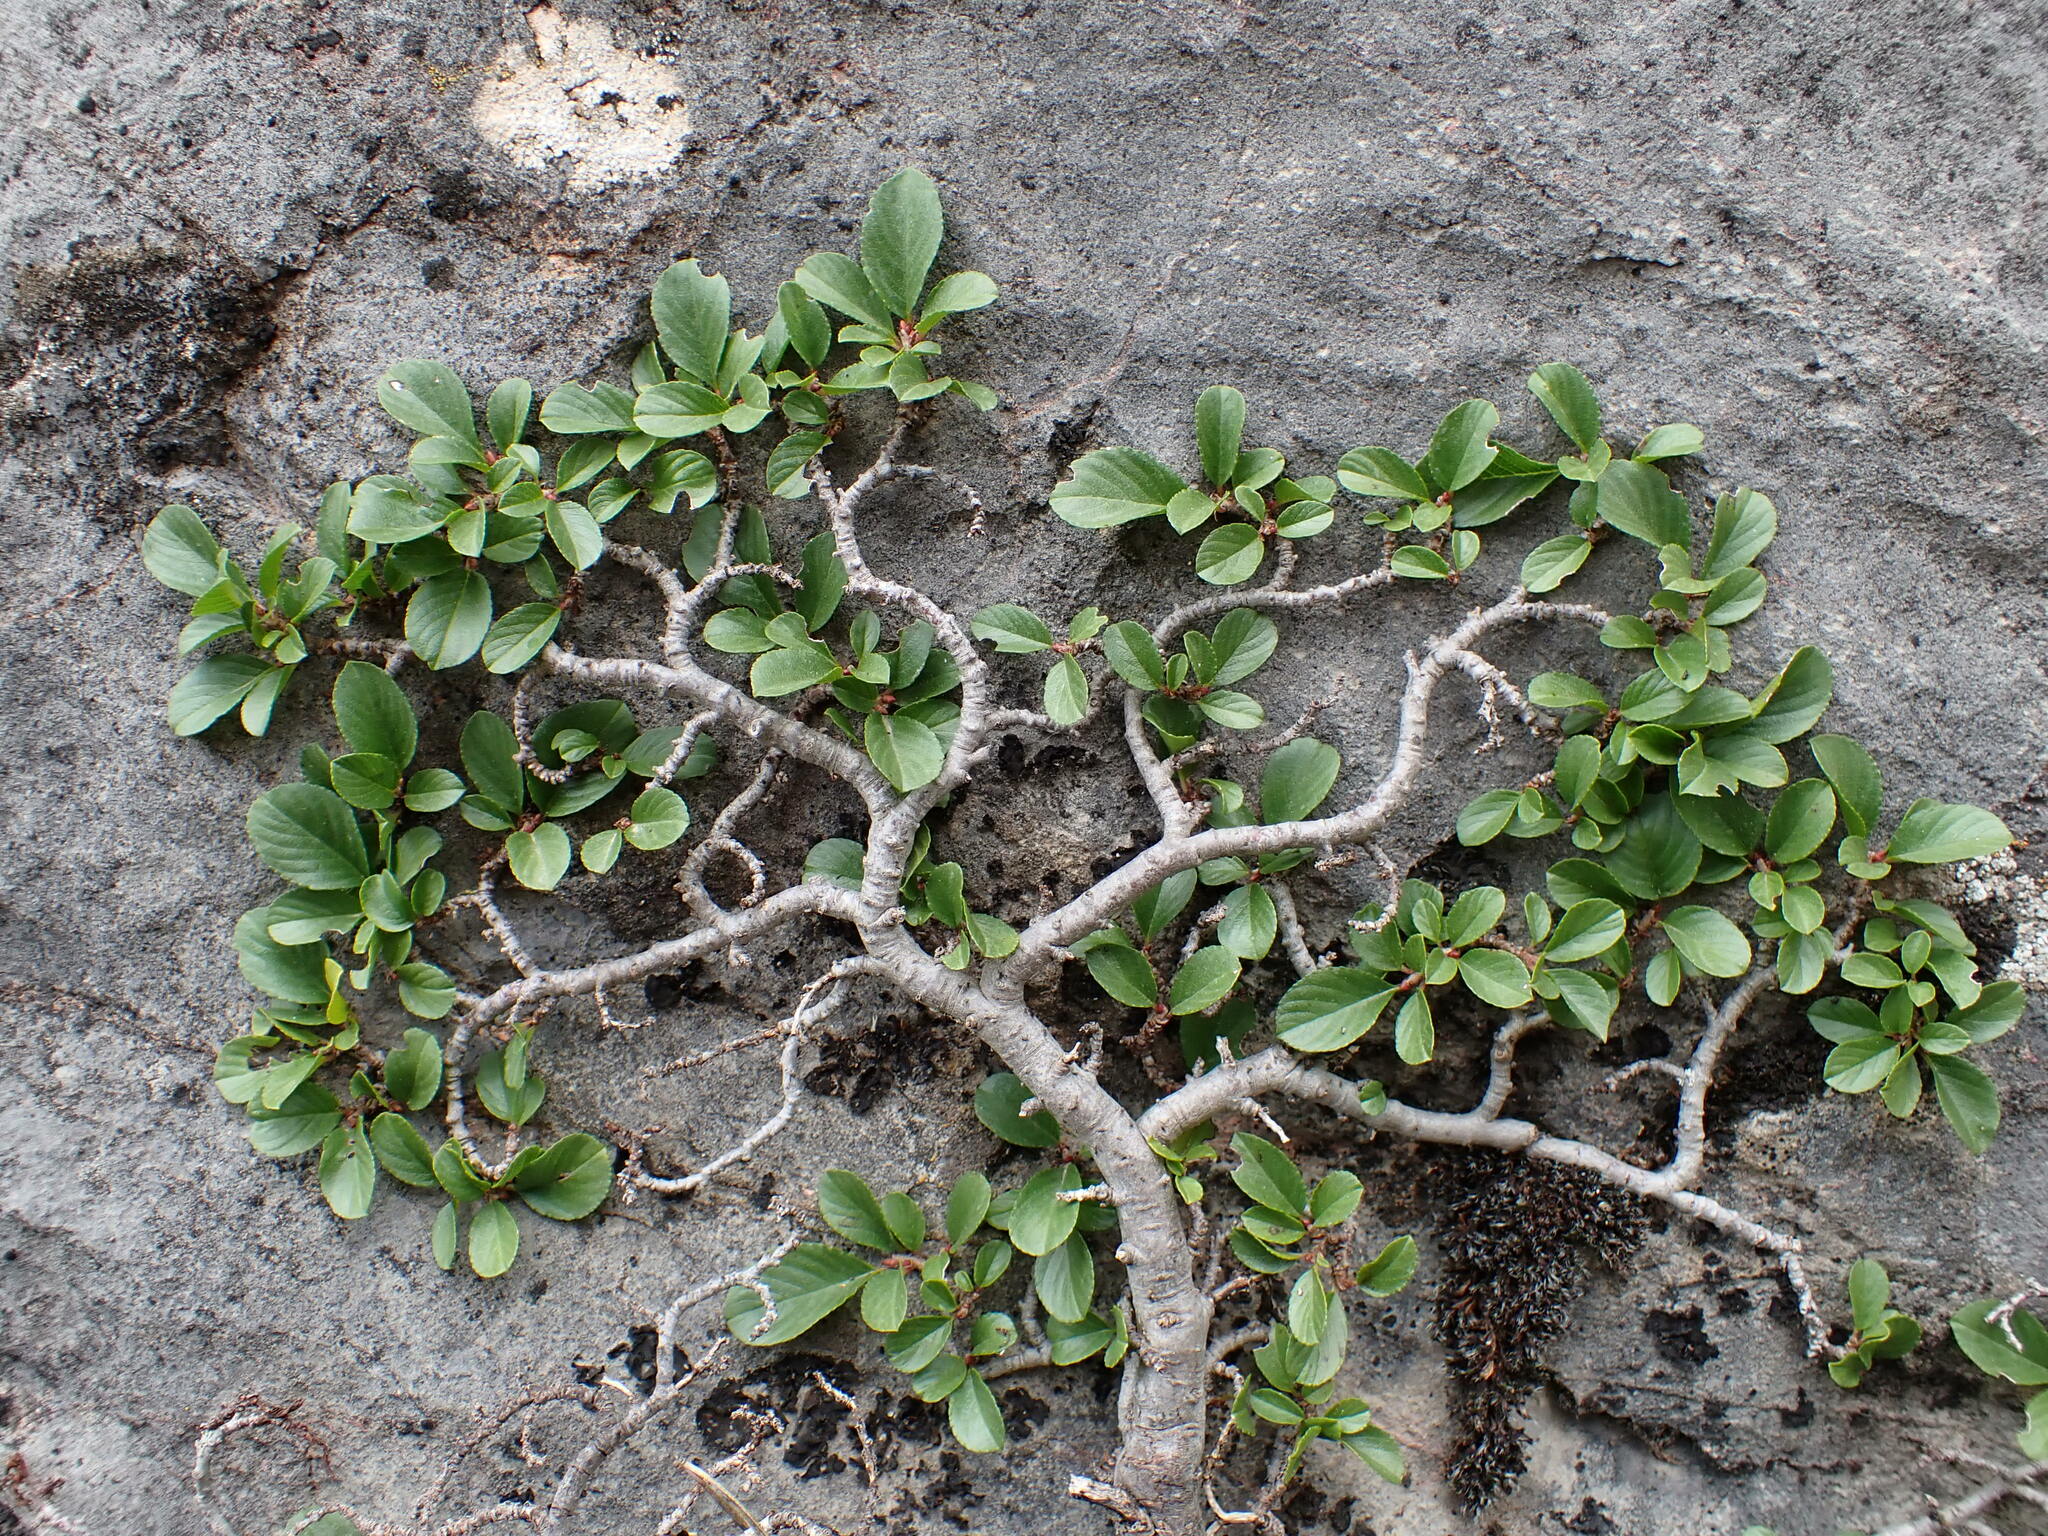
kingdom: Plantae
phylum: Tracheophyta
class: Magnoliopsida
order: Rosales
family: Rhamnaceae
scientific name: Rhamnaceae
